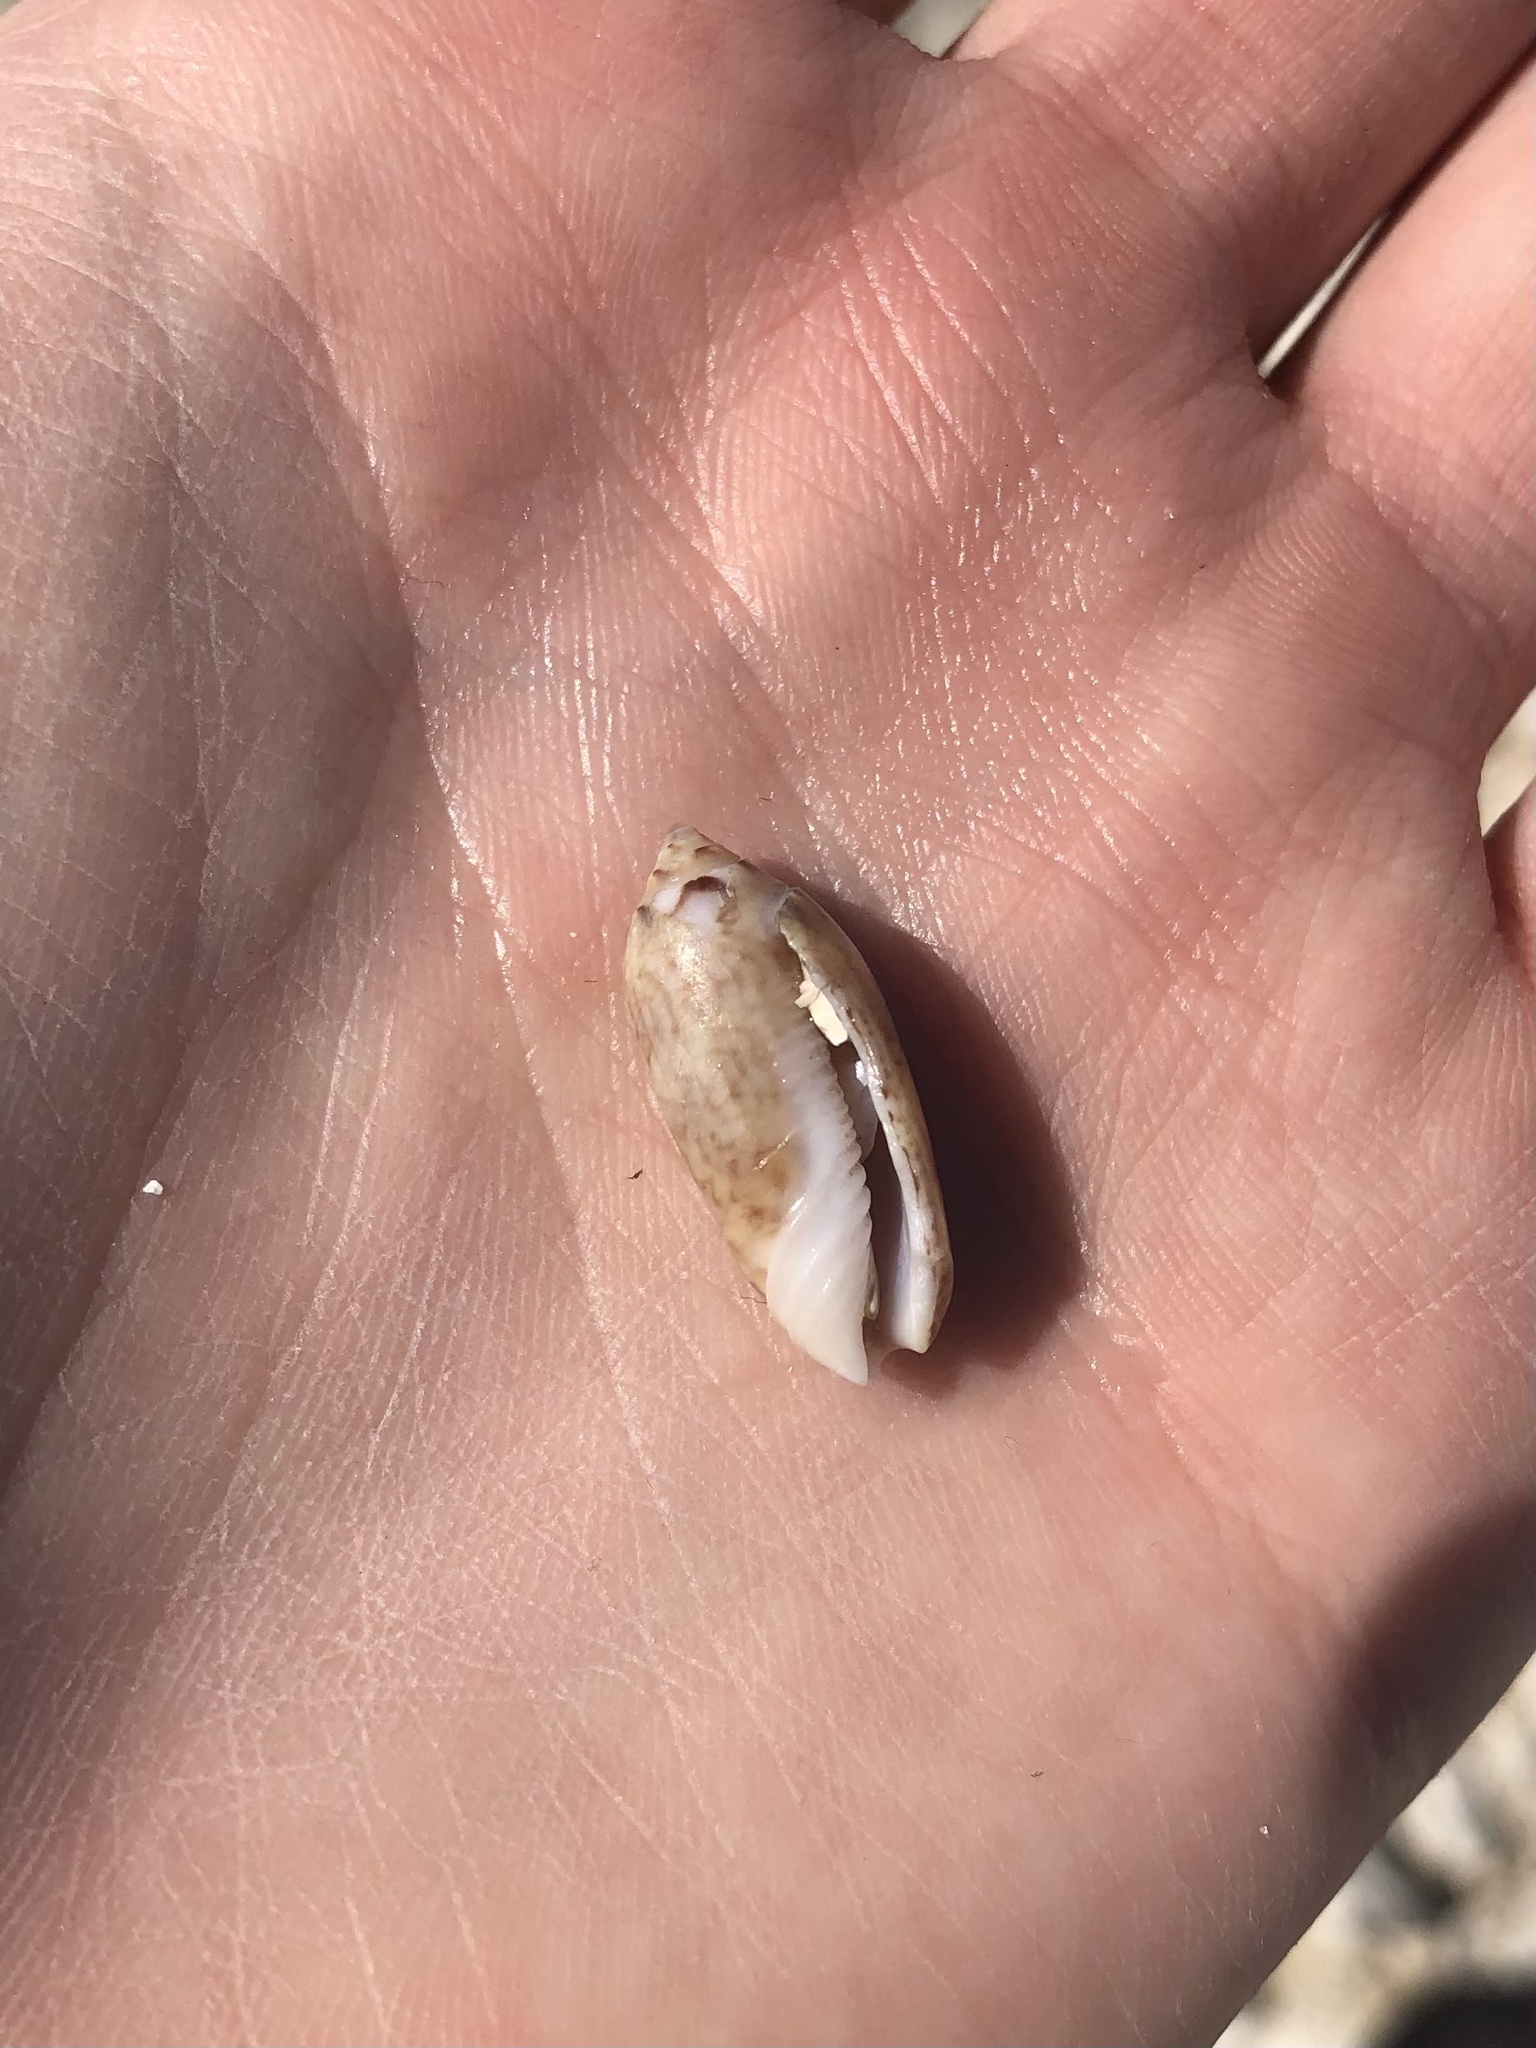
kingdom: Animalia
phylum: Mollusca
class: Gastropoda
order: Neogastropoda
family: Olividae
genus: Oliva
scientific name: Oliva sayana
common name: Lettered olive
